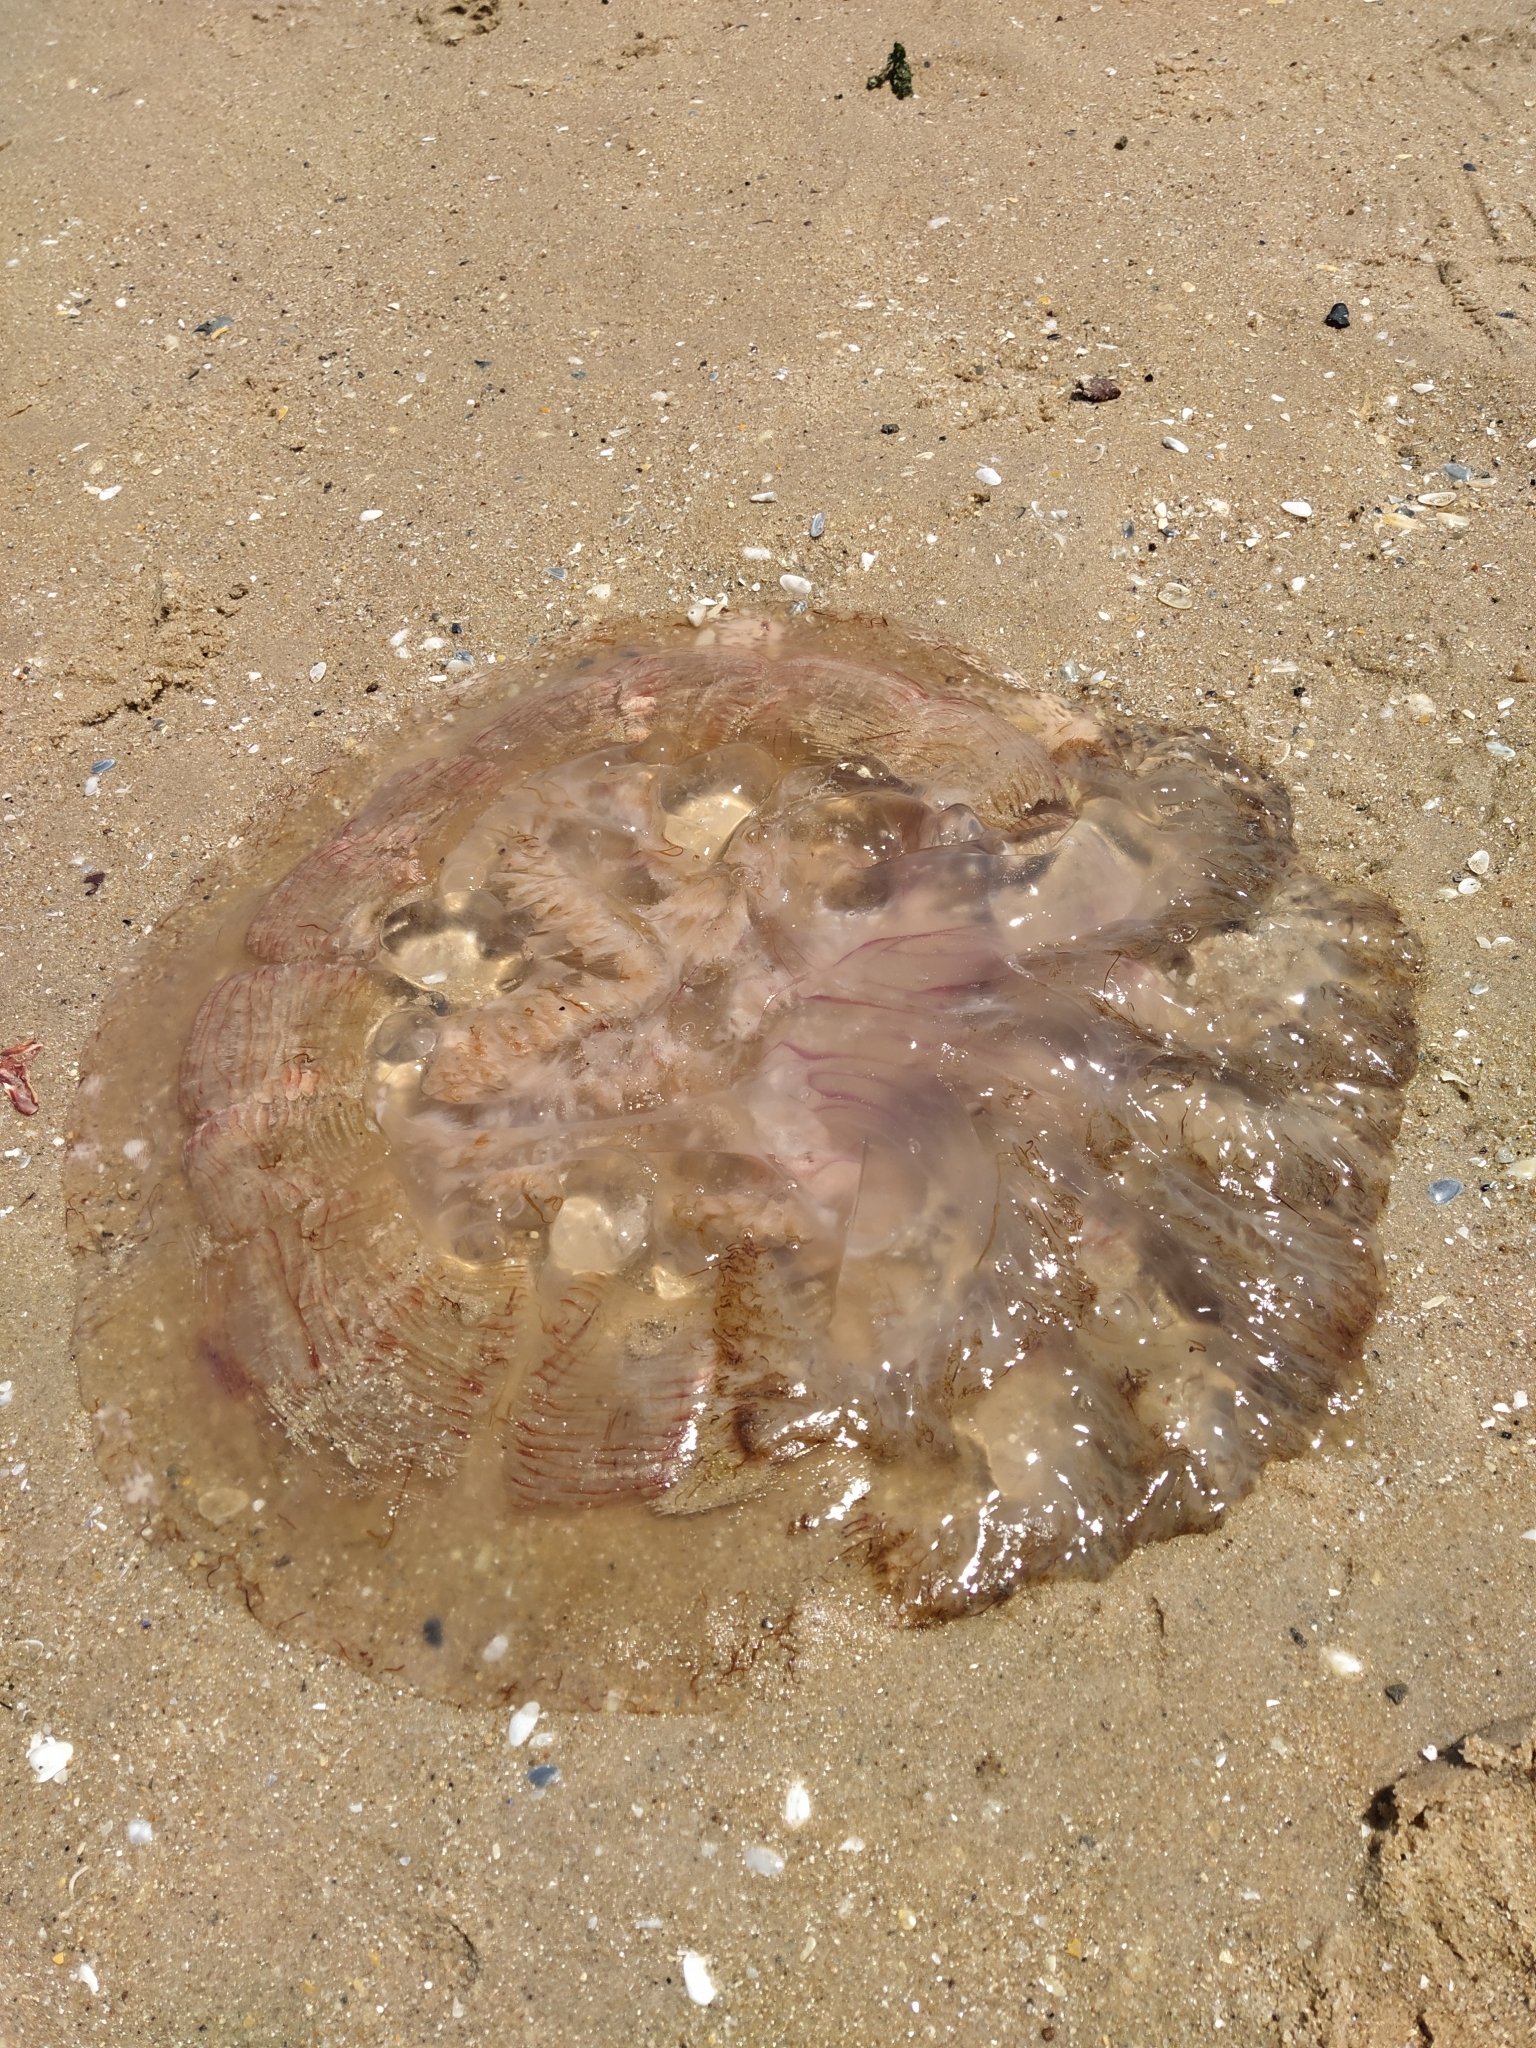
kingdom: Animalia
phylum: Cnidaria
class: Scyphozoa
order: Rhizostomeae
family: Lychnorhizidae
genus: Pseudorhiza
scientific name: Pseudorhiza haeckeli
